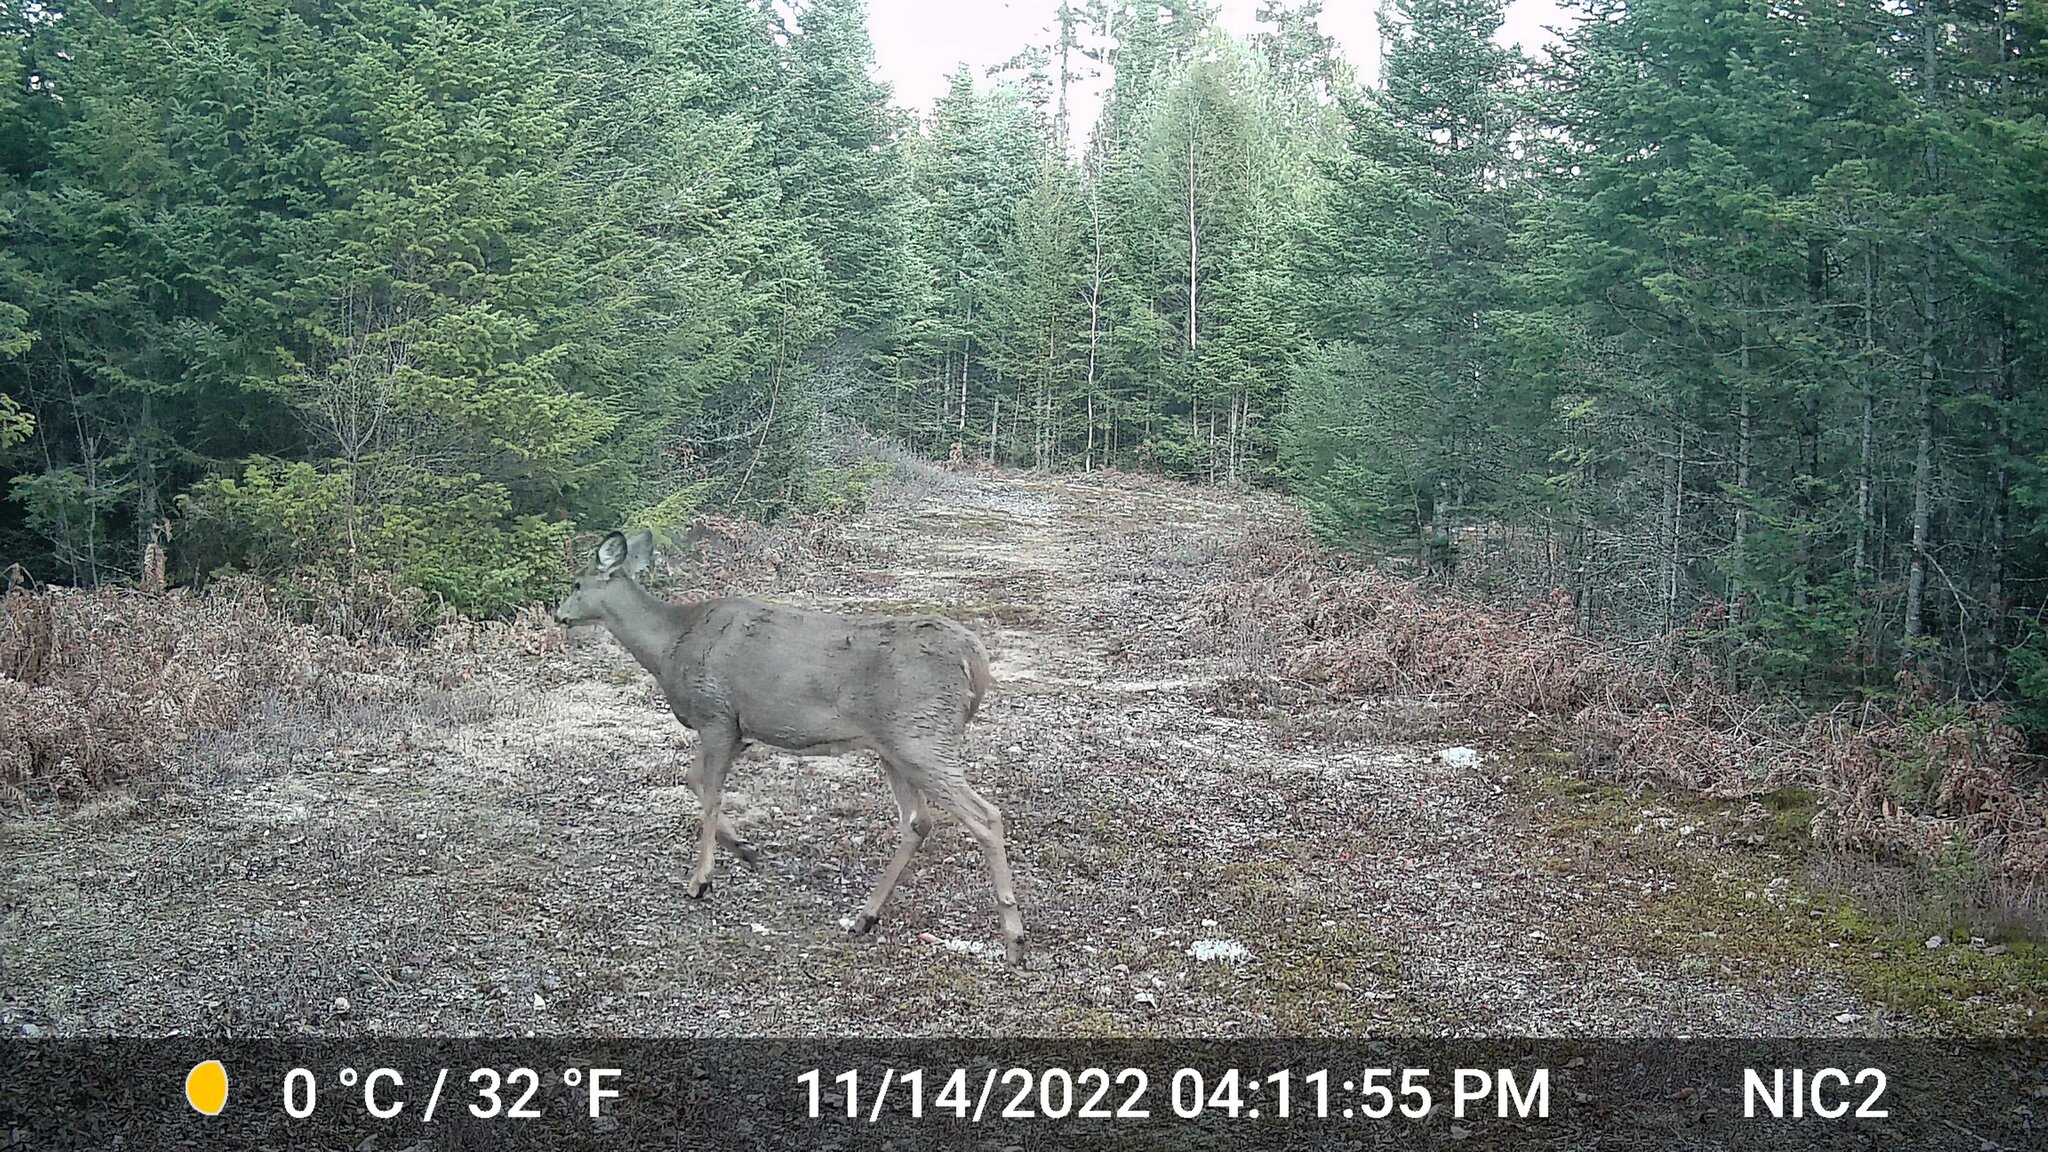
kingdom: Animalia
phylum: Chordata
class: Mammalia
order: Artiodactyla
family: Cervidae
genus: Odocoileus
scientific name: Odocoileus virginianus
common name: White-tailed deer
